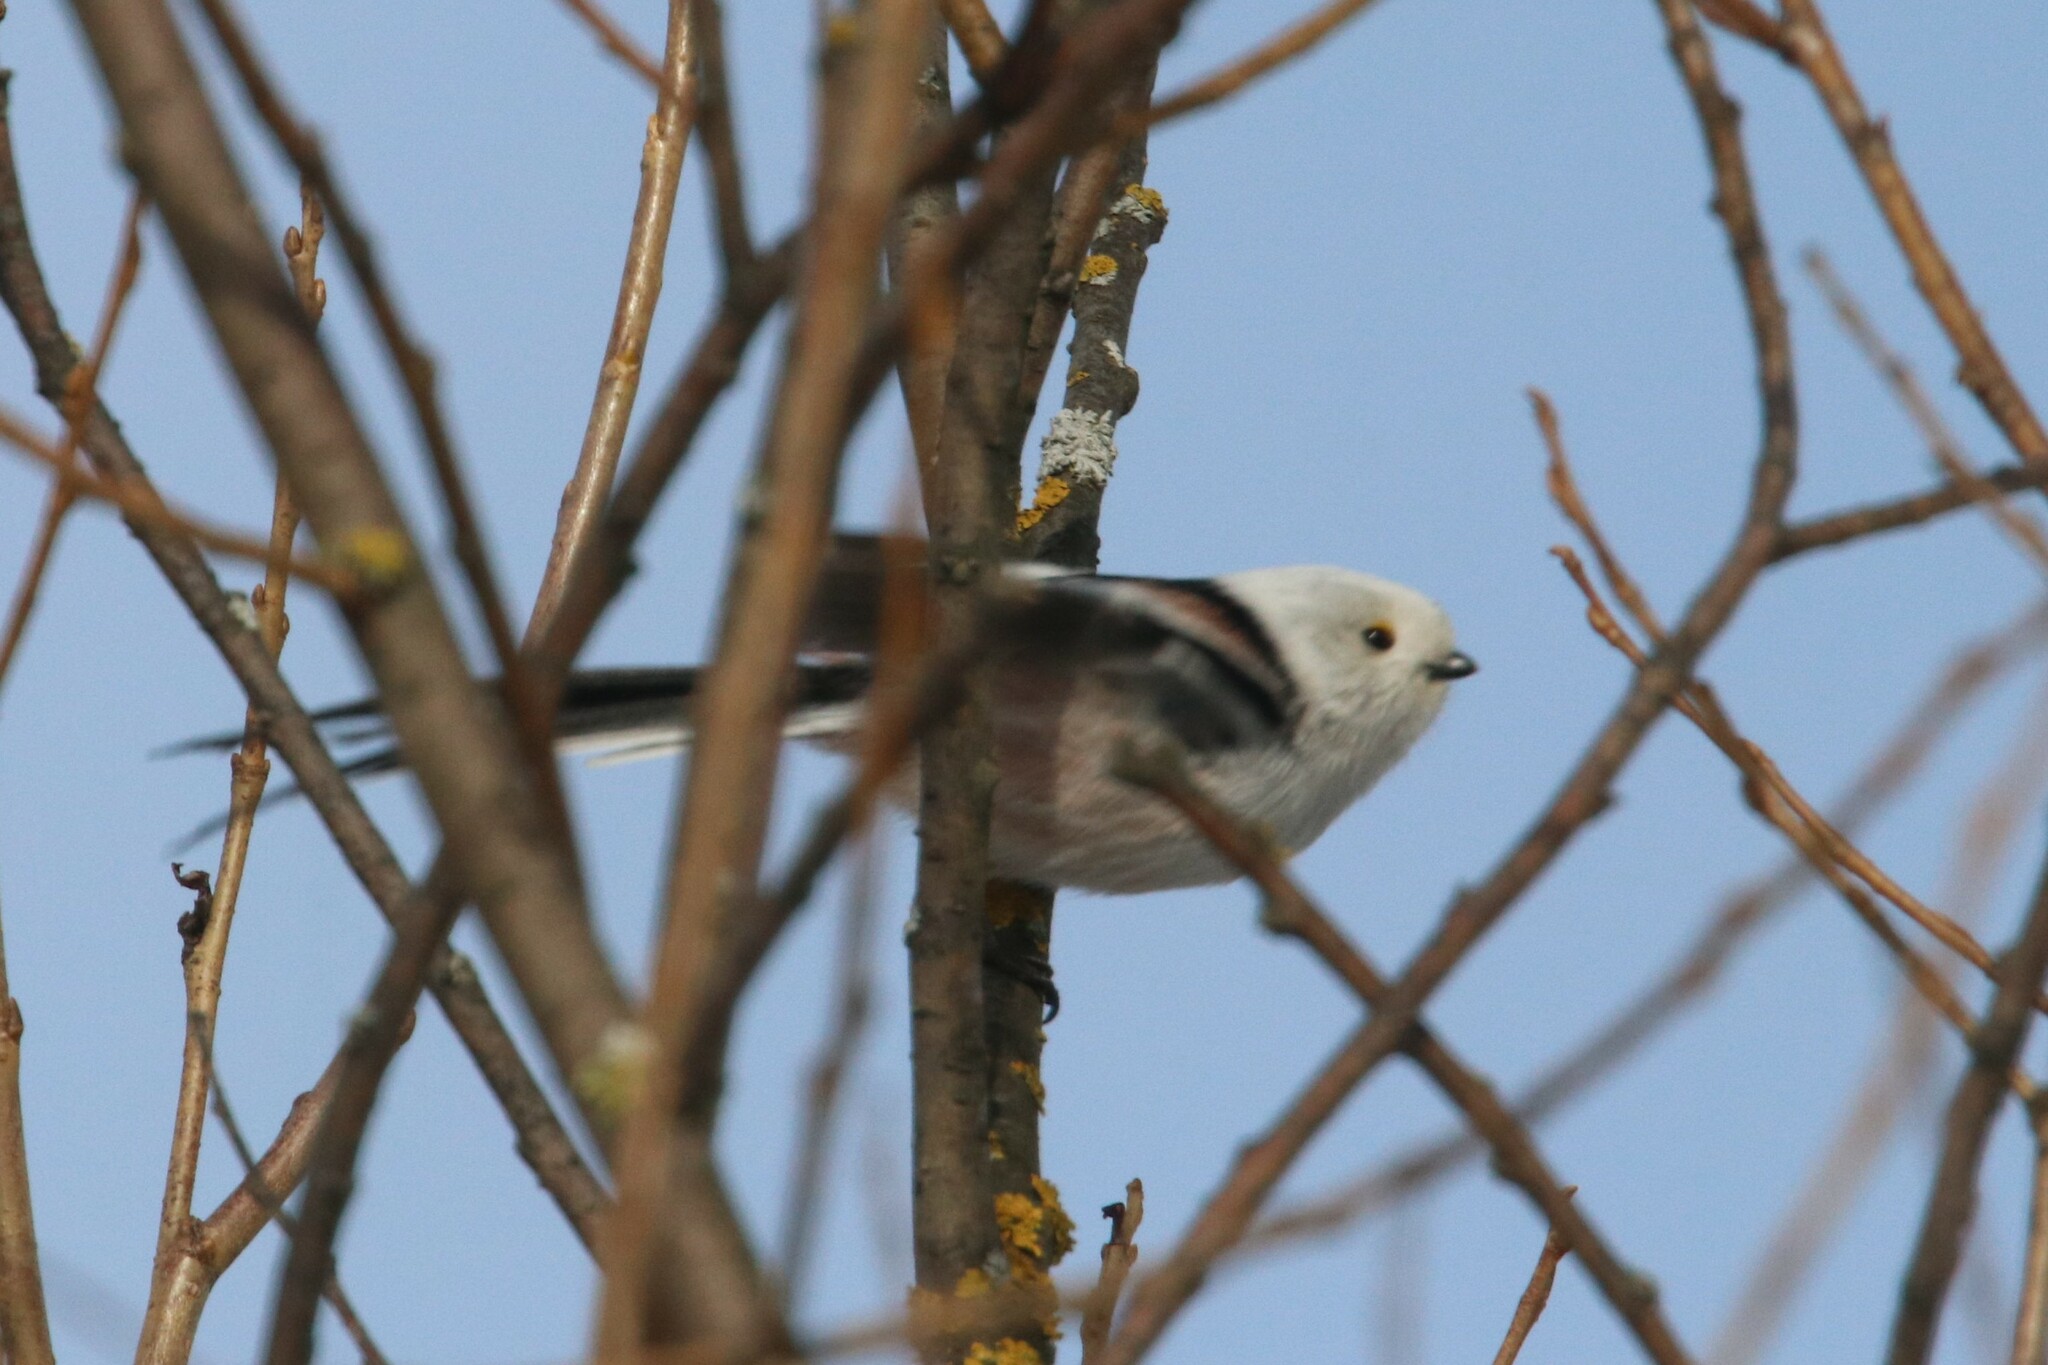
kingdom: Animalia
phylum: Chordata
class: Aves
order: Passeriformes
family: Aegithalidae
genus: Aegithalos
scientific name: Aegithalos caudatus
